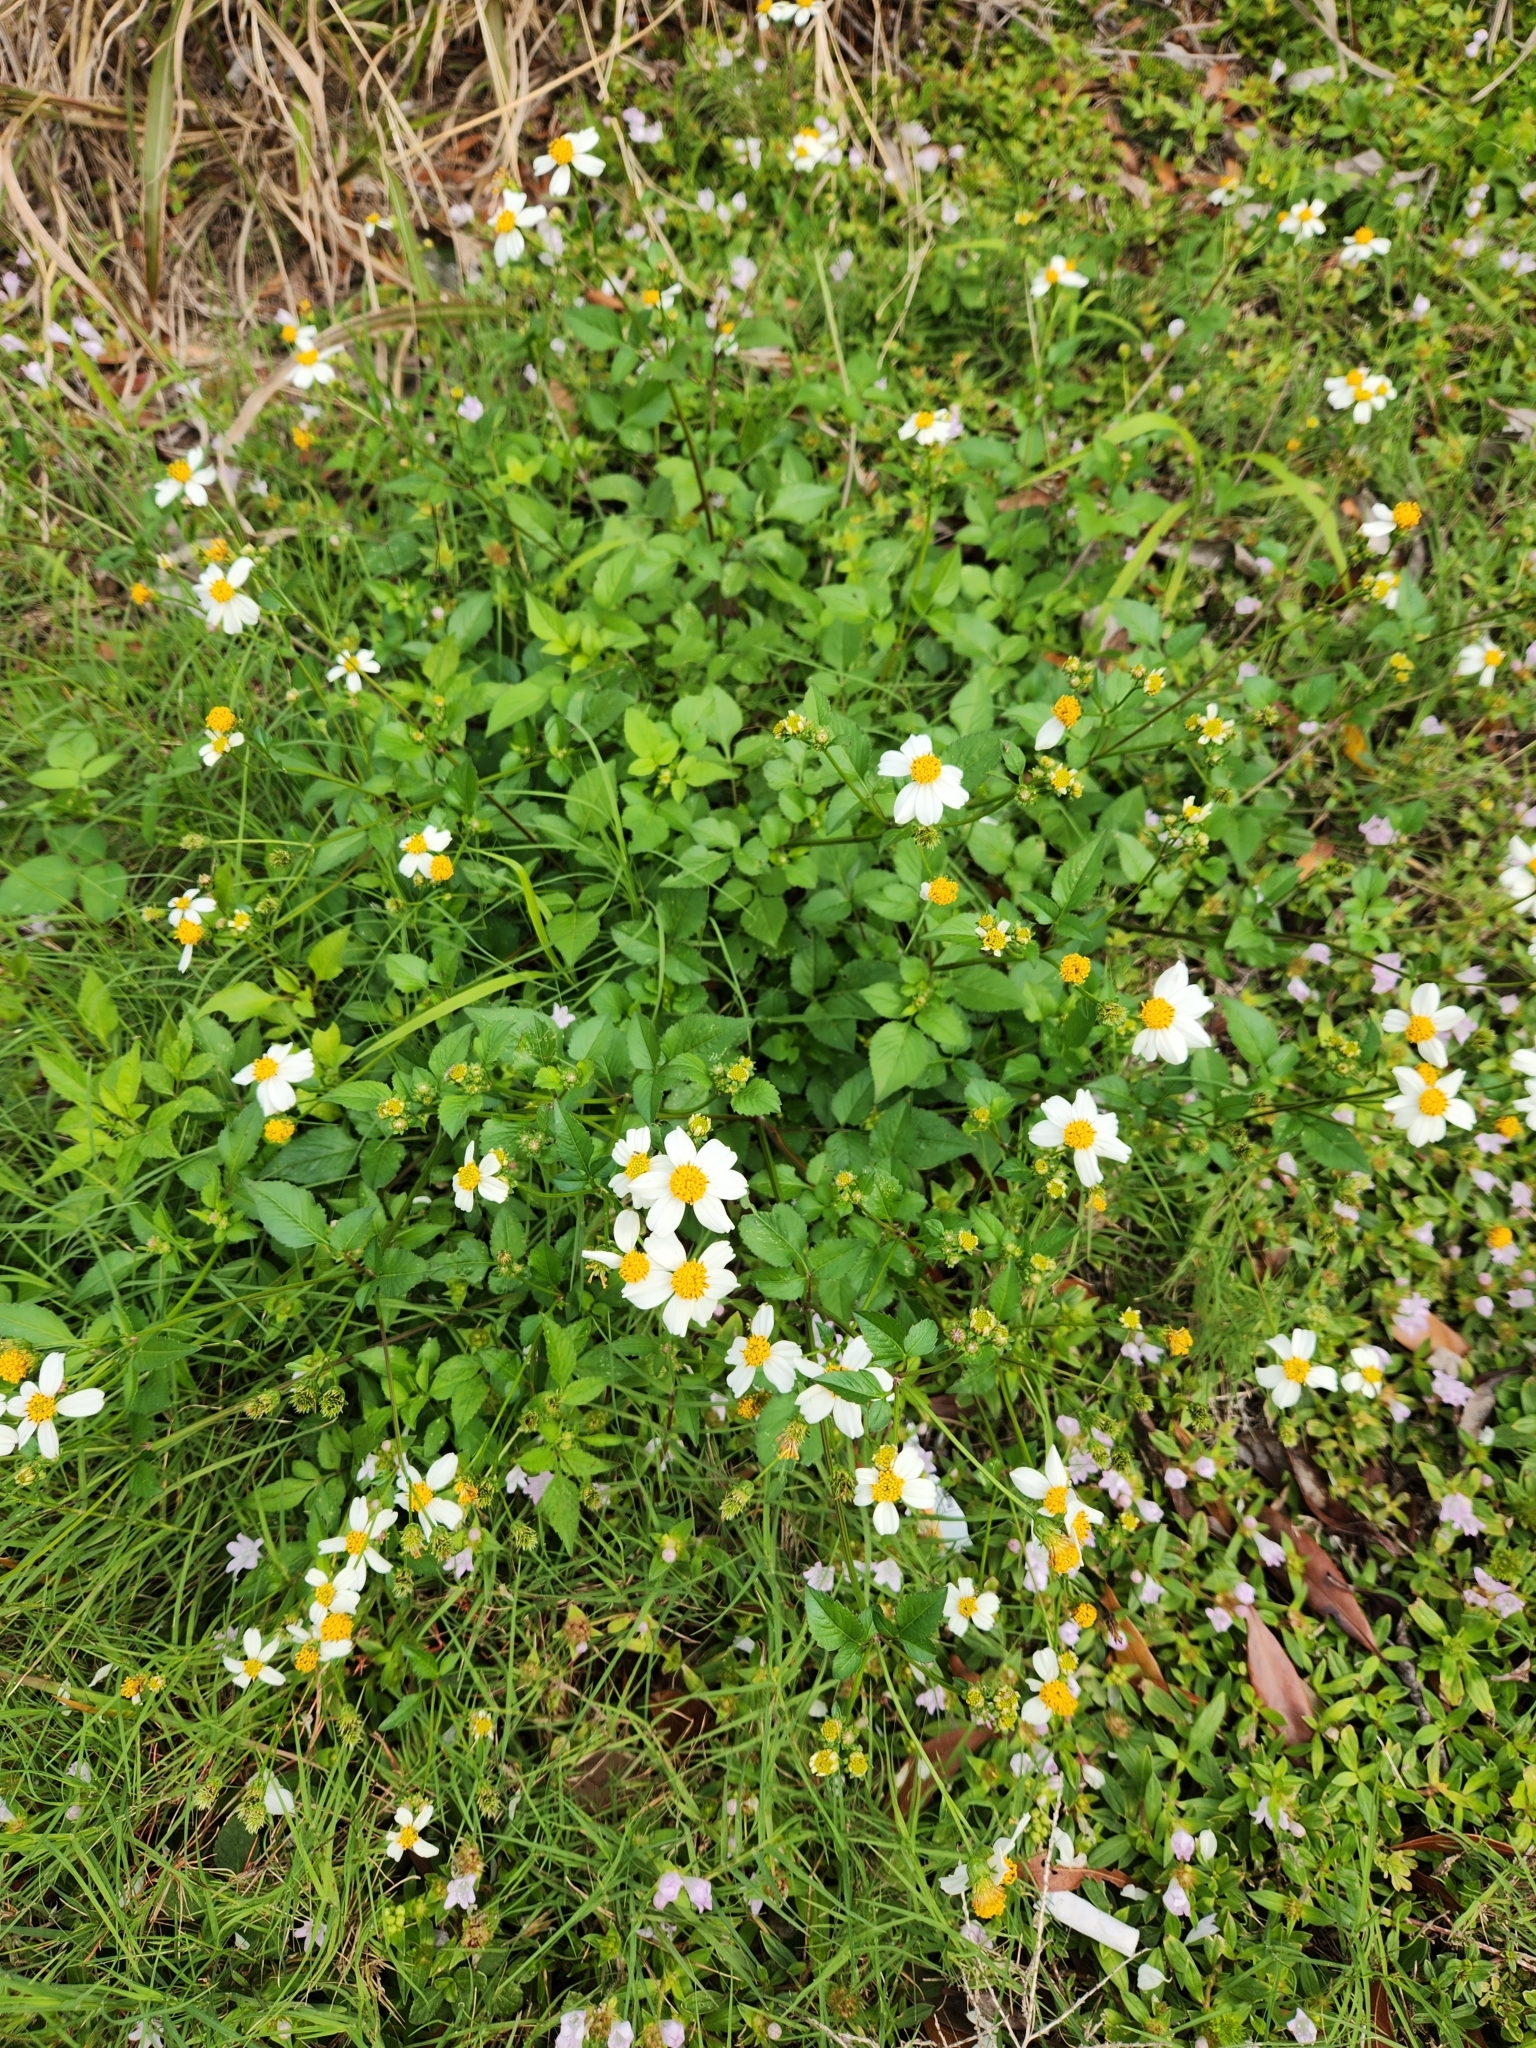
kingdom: Plantae
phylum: Tracheophyta
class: Magnoliopsida
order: Asterales
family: Asteraceae
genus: Bidens
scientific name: Bidens alba
